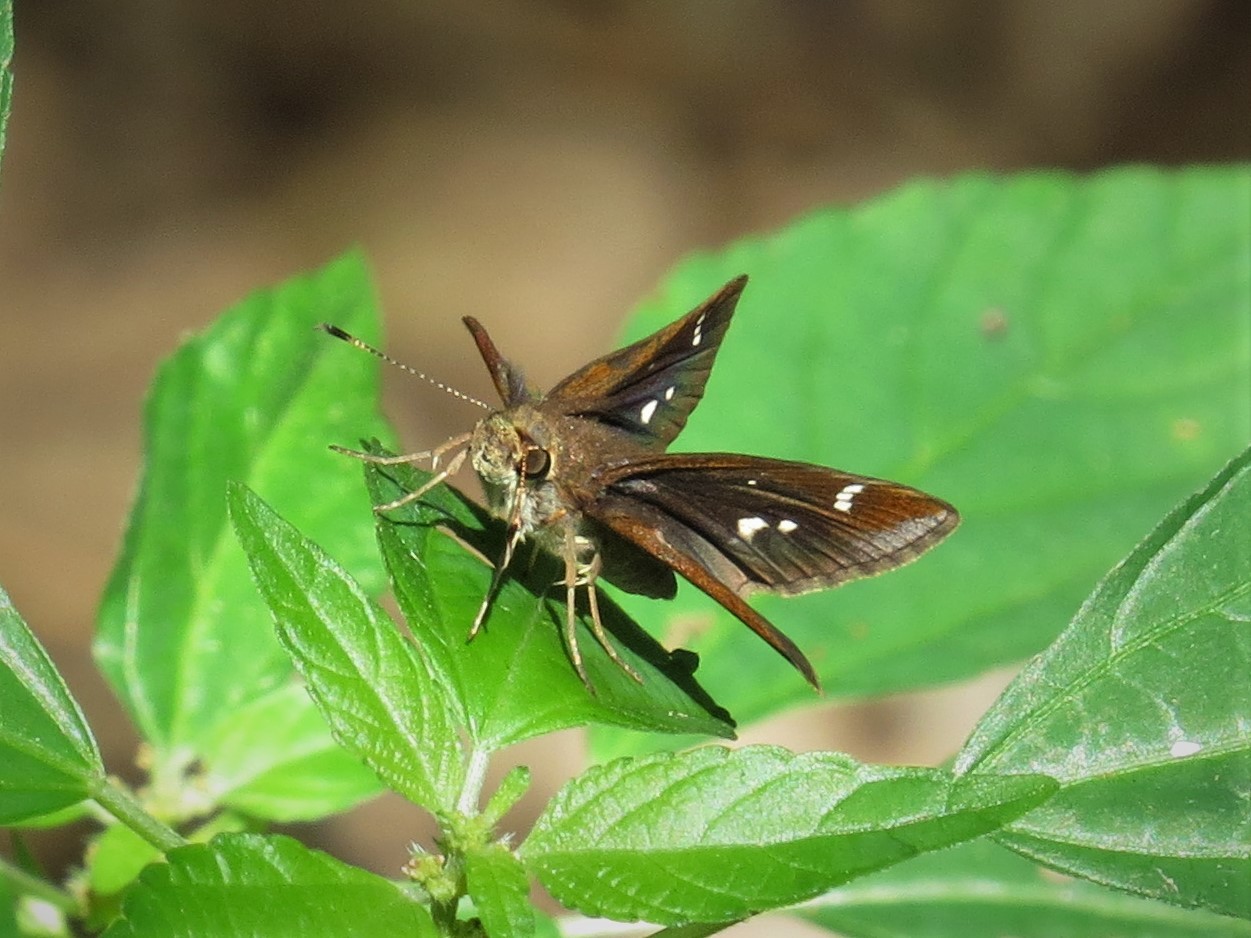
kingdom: Animalia
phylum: Arthropoda
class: Insecta
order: Lepidoptera
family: Hesperiidae
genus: Lerema
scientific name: Lerema accius
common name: Clouded skipper
